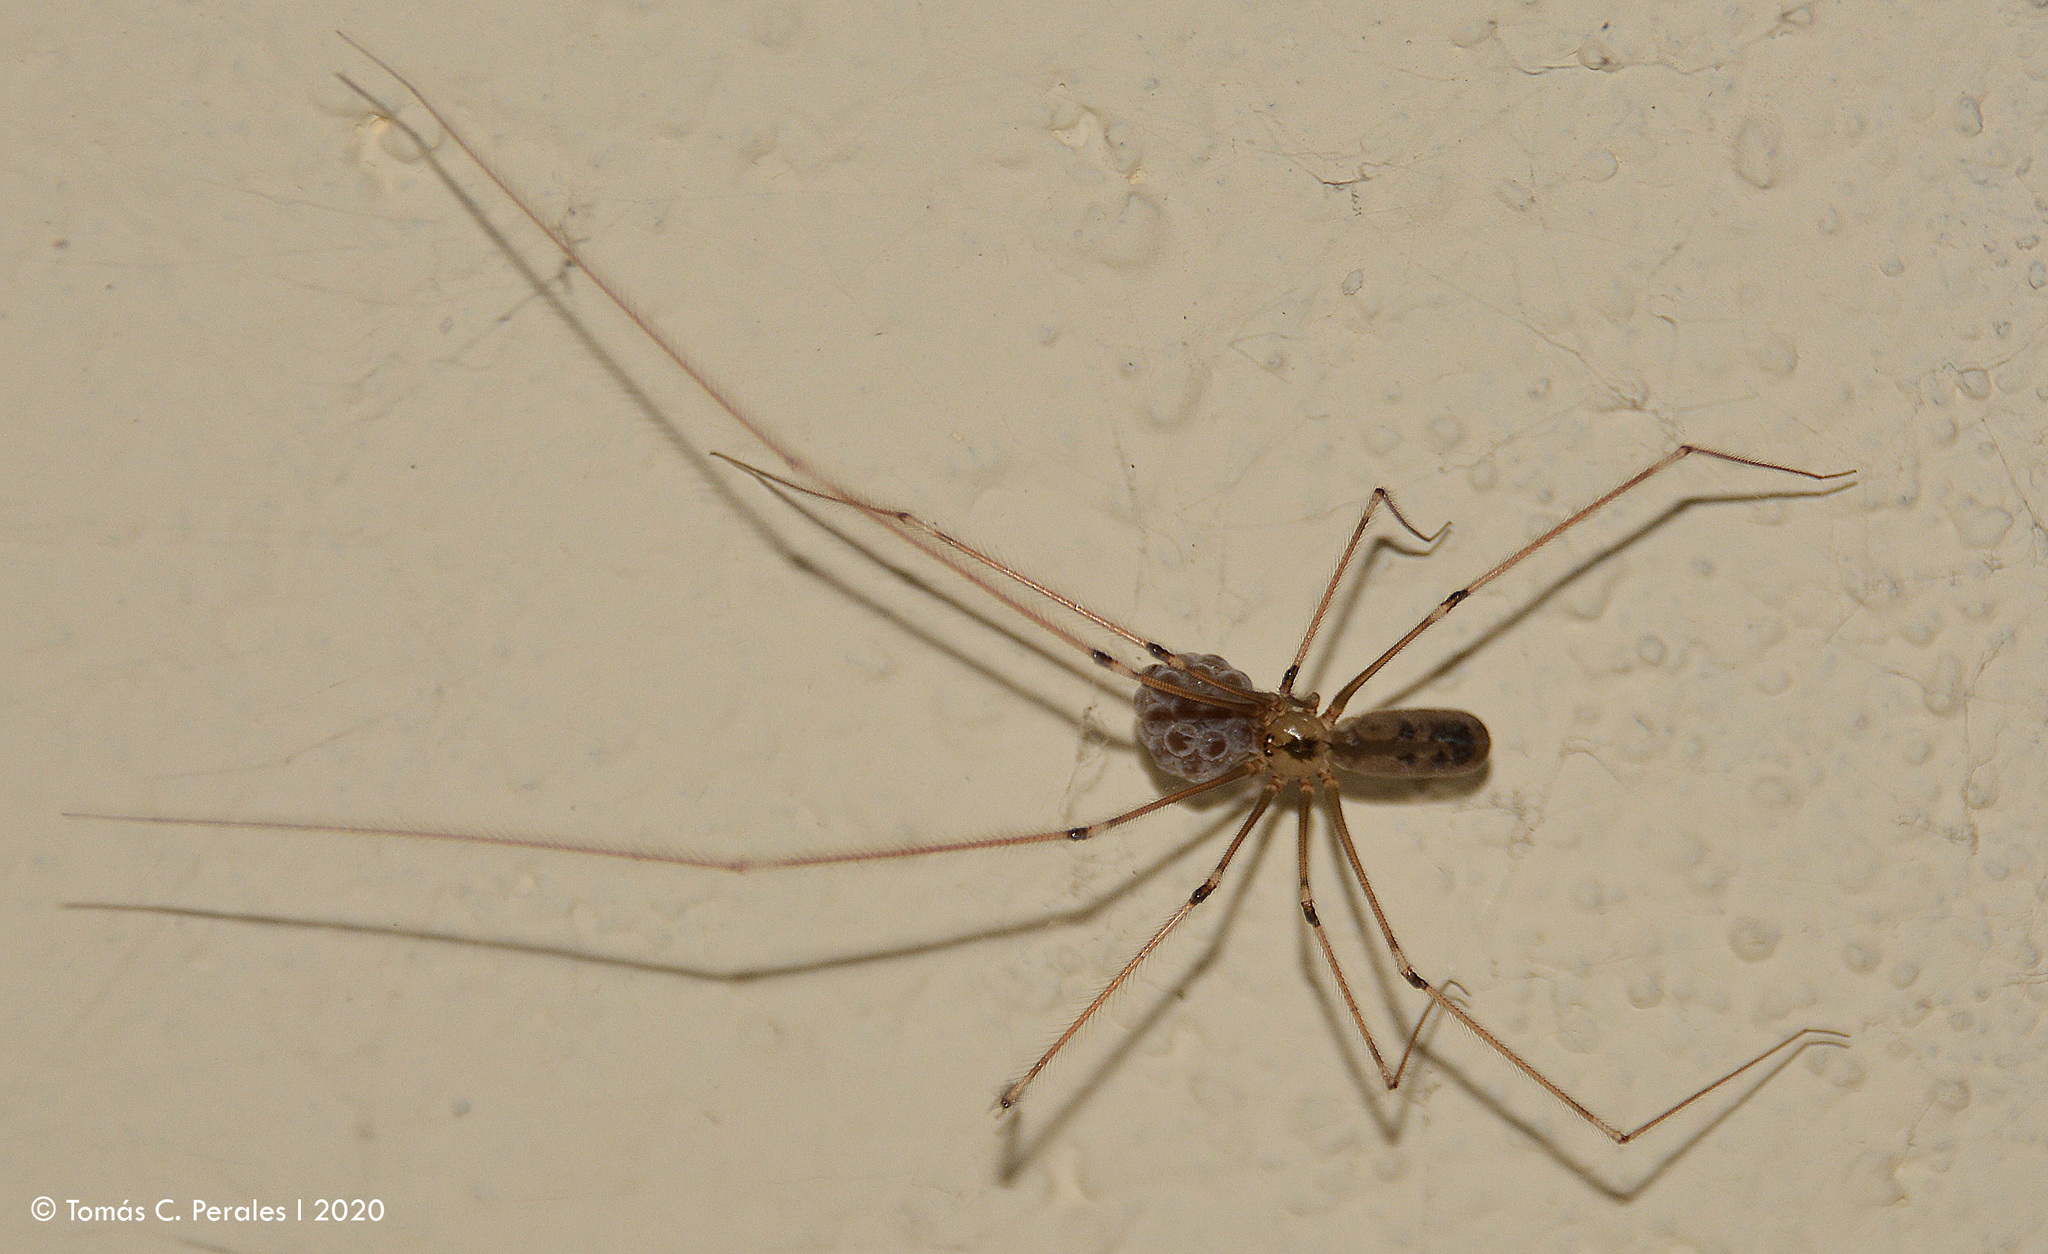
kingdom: Animalia
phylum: Arthropoda
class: Arachnida
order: Araneae
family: Pholcidae
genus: Pholcus
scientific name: Pholcus phalangioides
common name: Longbodied cellar spider
